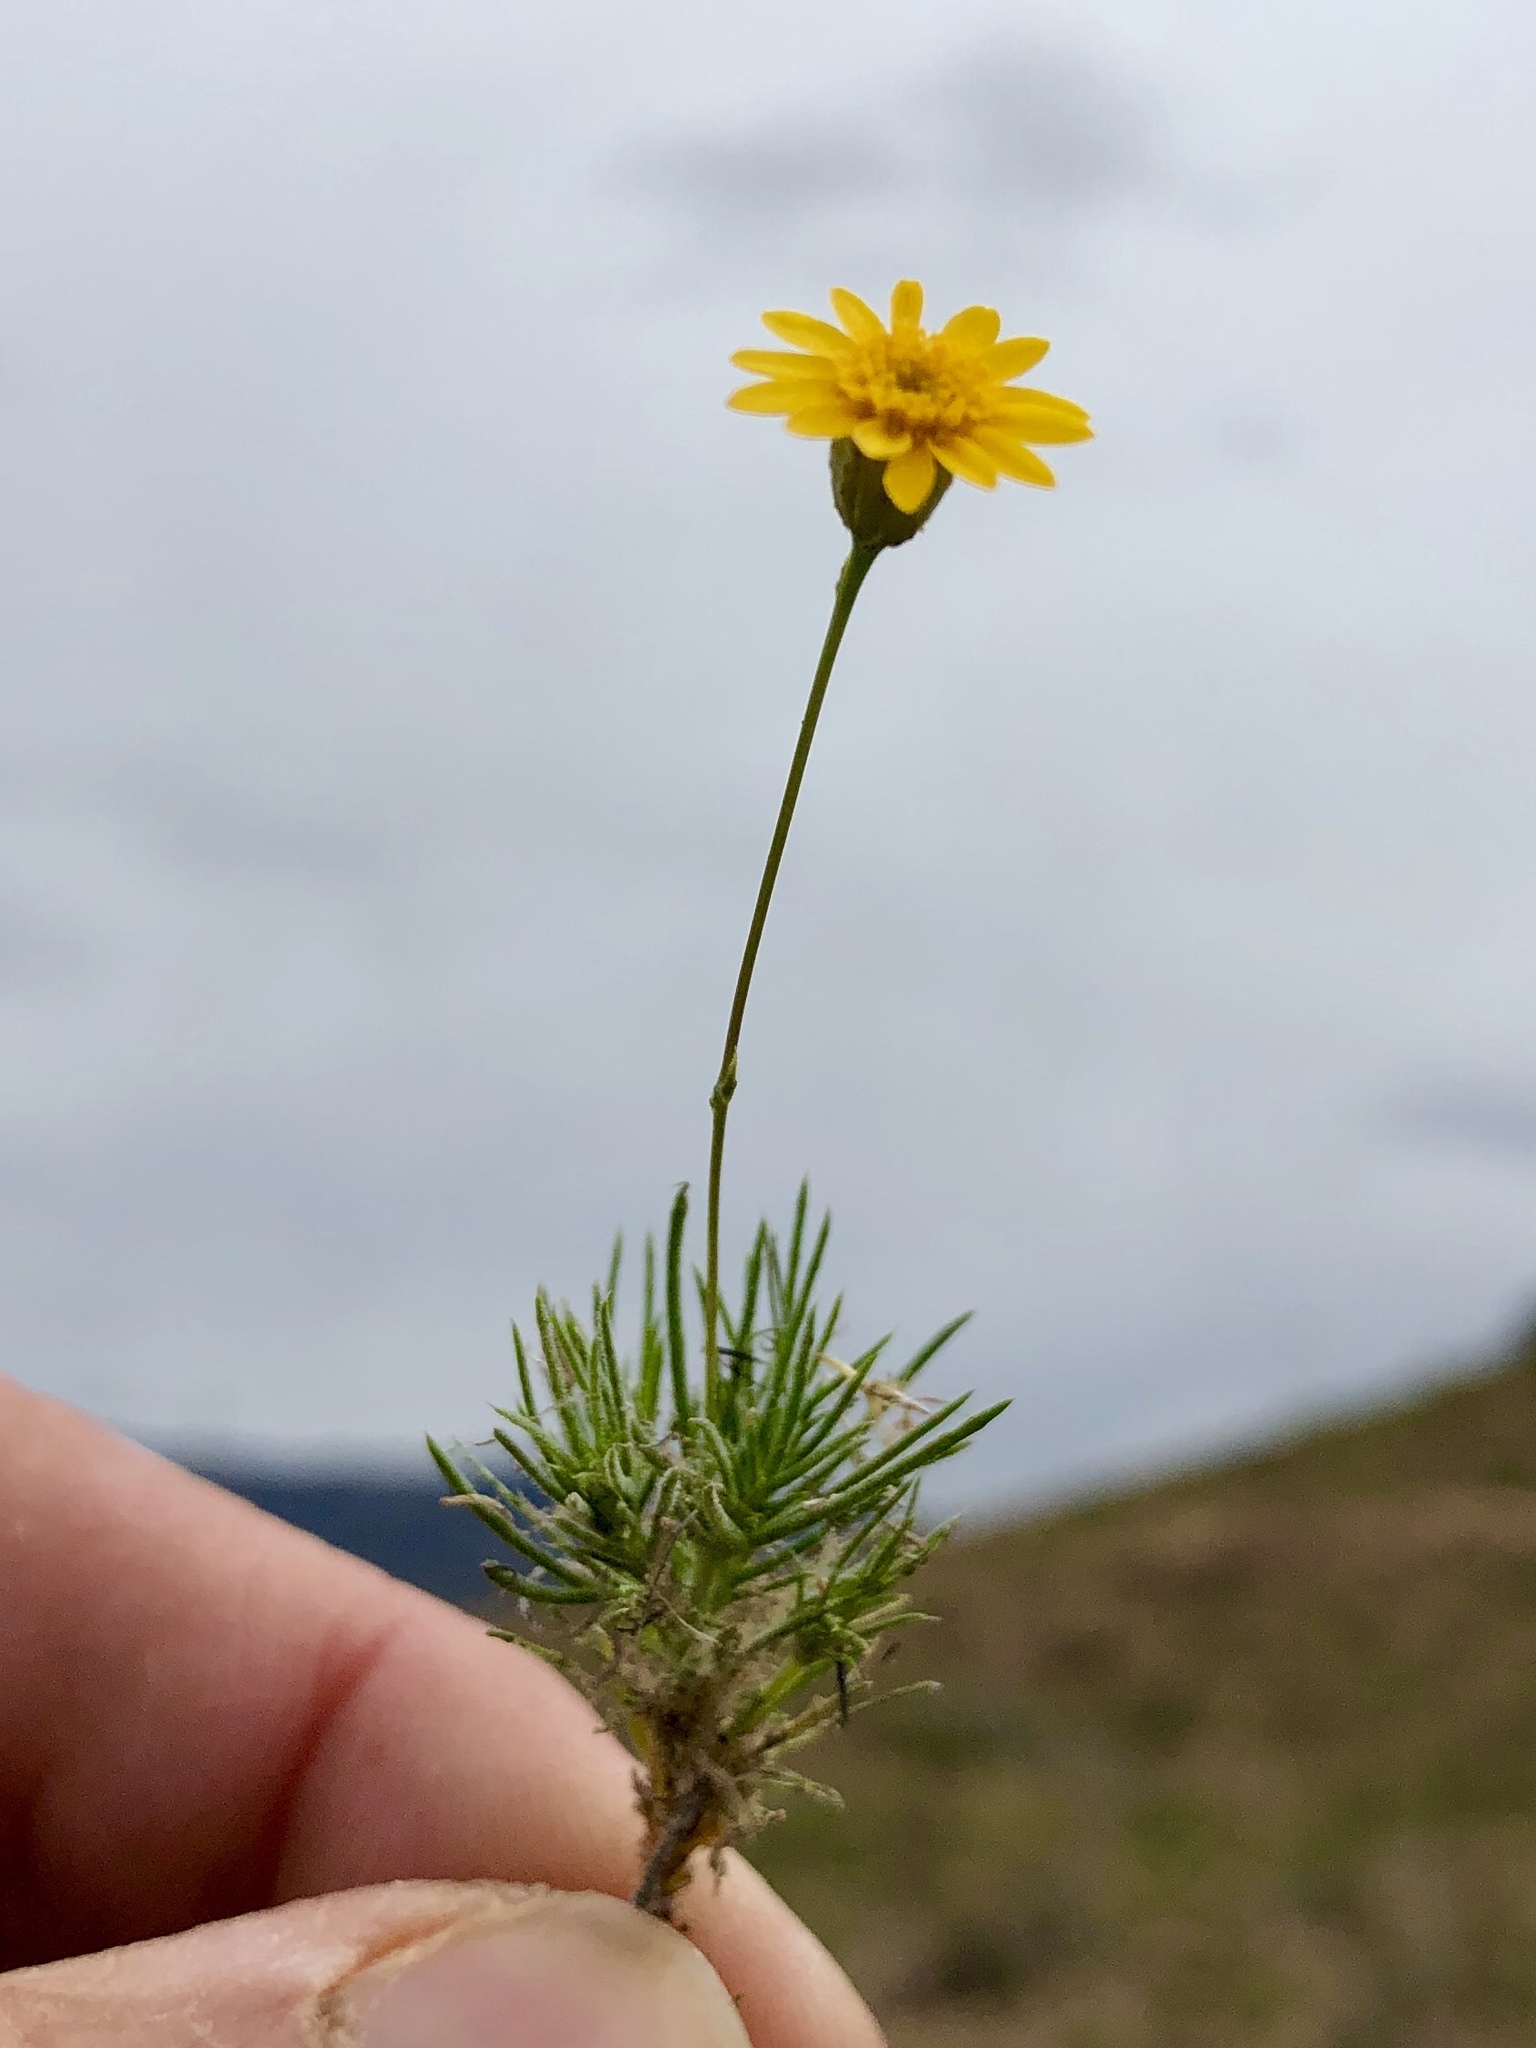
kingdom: Plantae
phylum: Tracheophyta
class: Magnoliopsida
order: Asterales
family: Asteraceae
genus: Thymophylla
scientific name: Thymophylla pentachaeta
